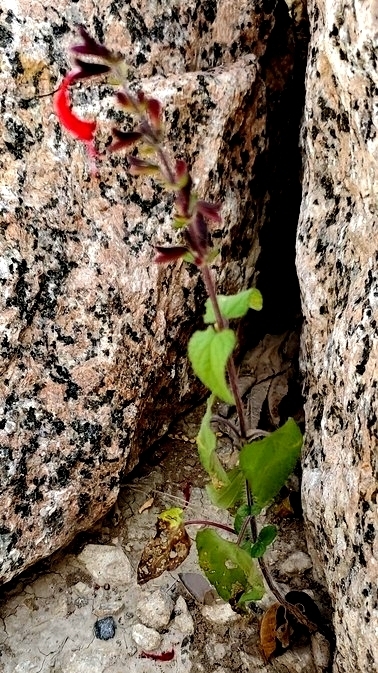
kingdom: Plantae
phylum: Tracheophyta
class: Magnoliopsida
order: Lamiales
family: Lamiaceae
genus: Salvia
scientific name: Salvia coccinea
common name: Blood sage
